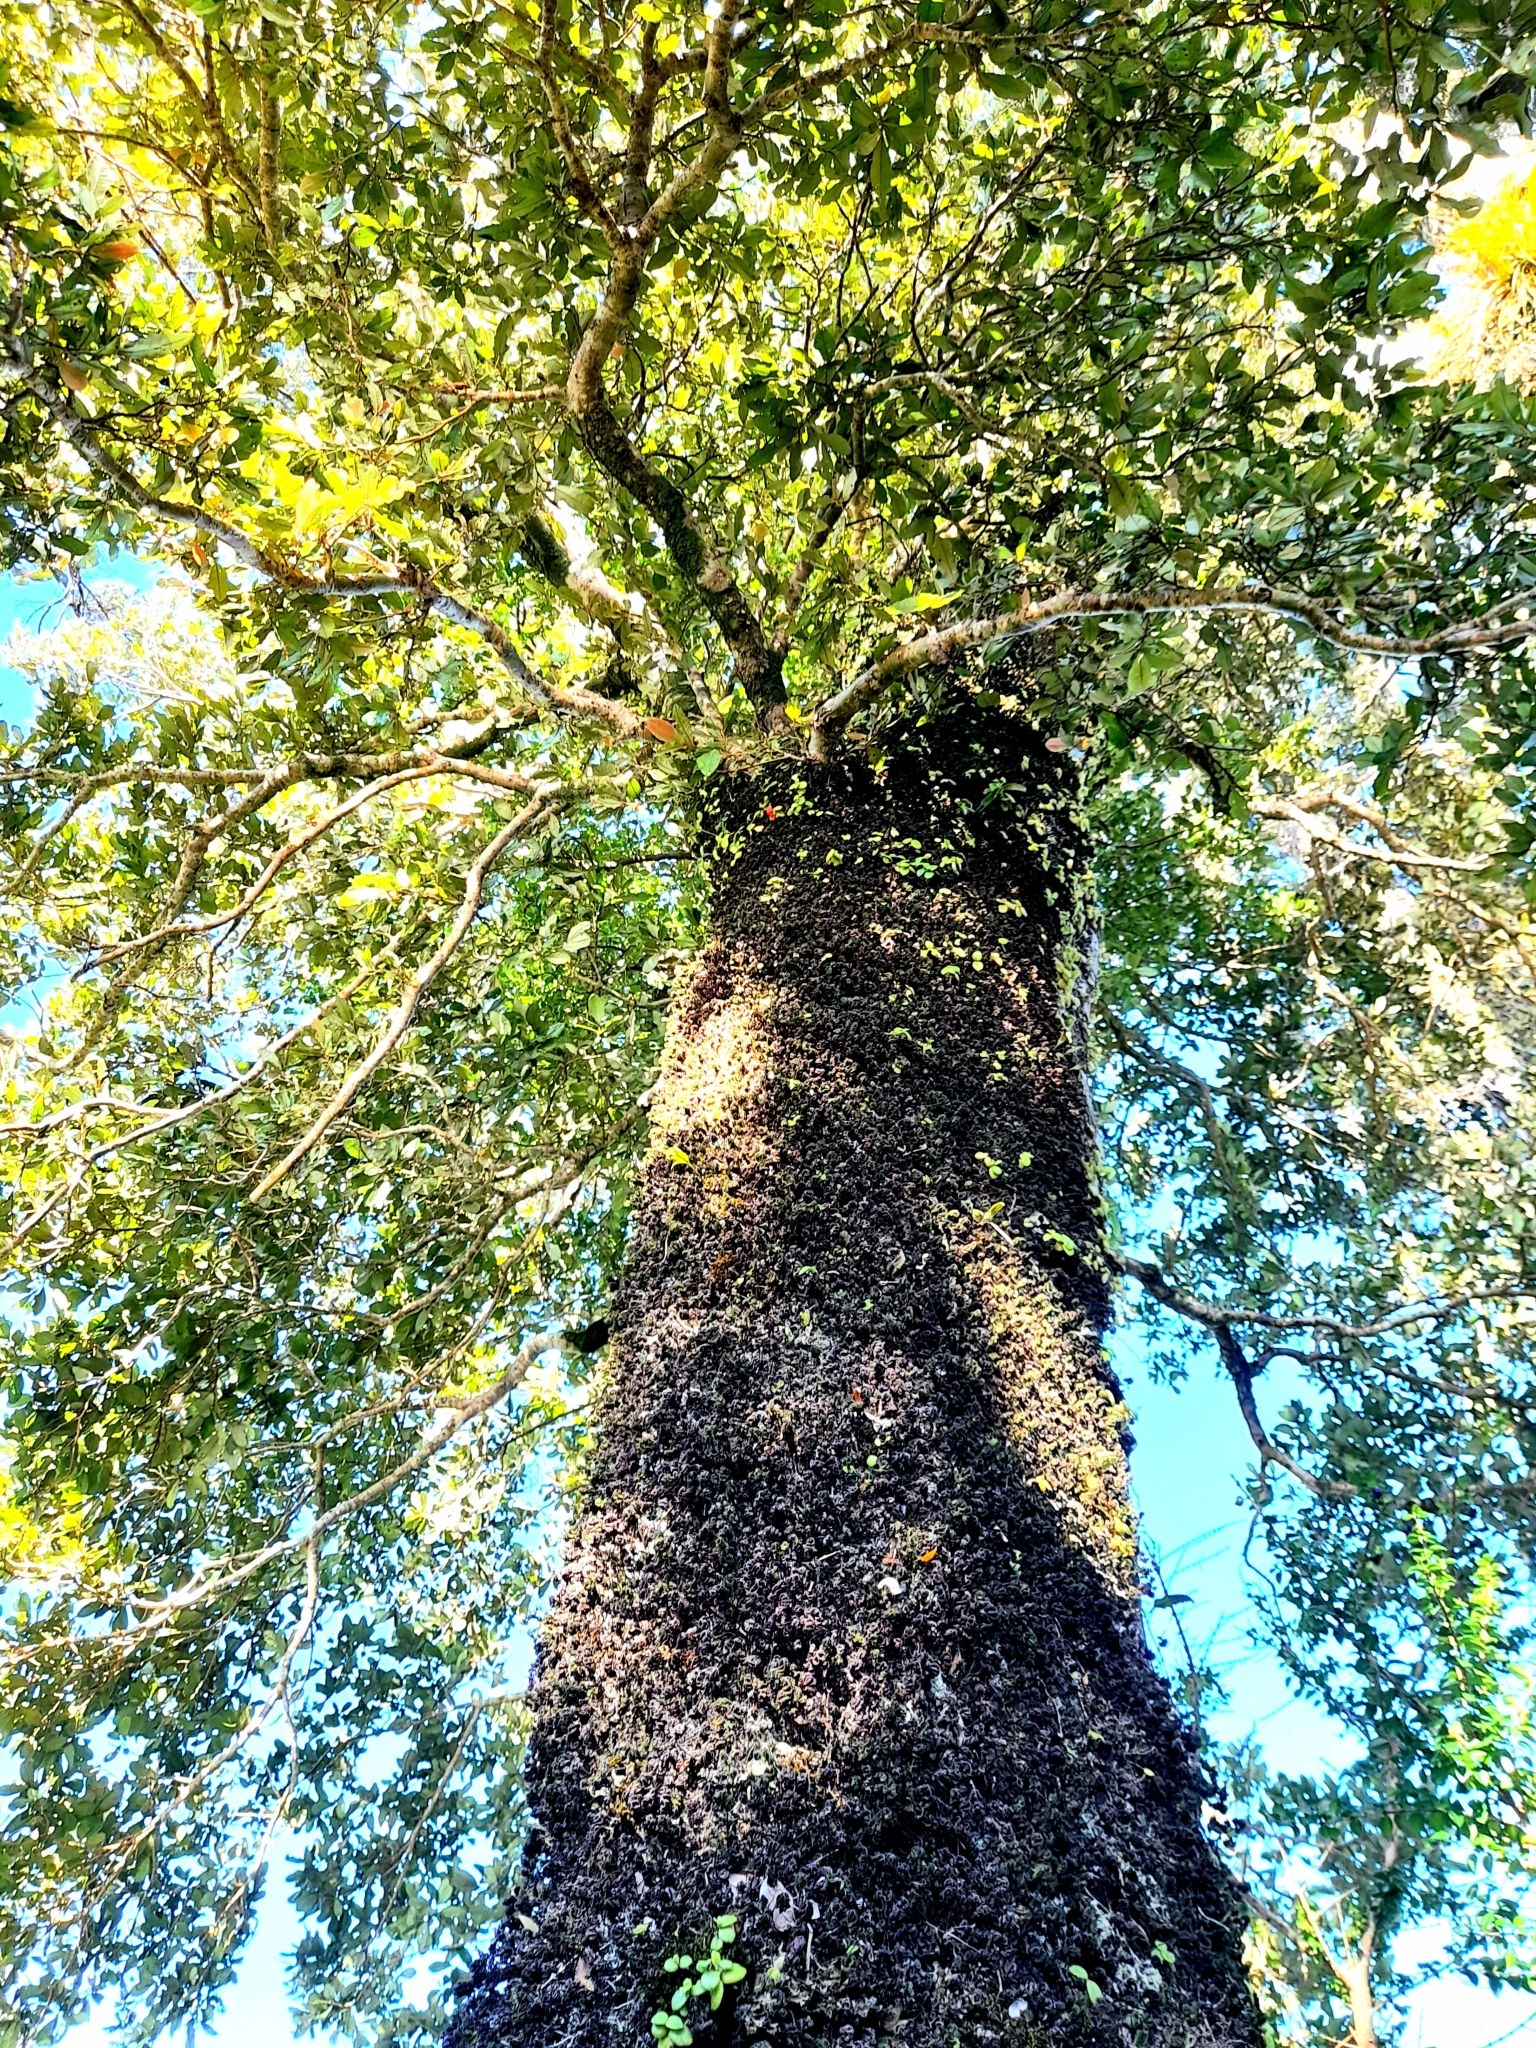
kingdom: Plantae
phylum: Tracheophyta
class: Magnoliopsida
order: Berberidopsidales
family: Aextoxicaceae
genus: Aextoxicon
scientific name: Aextoxicon punctatum
